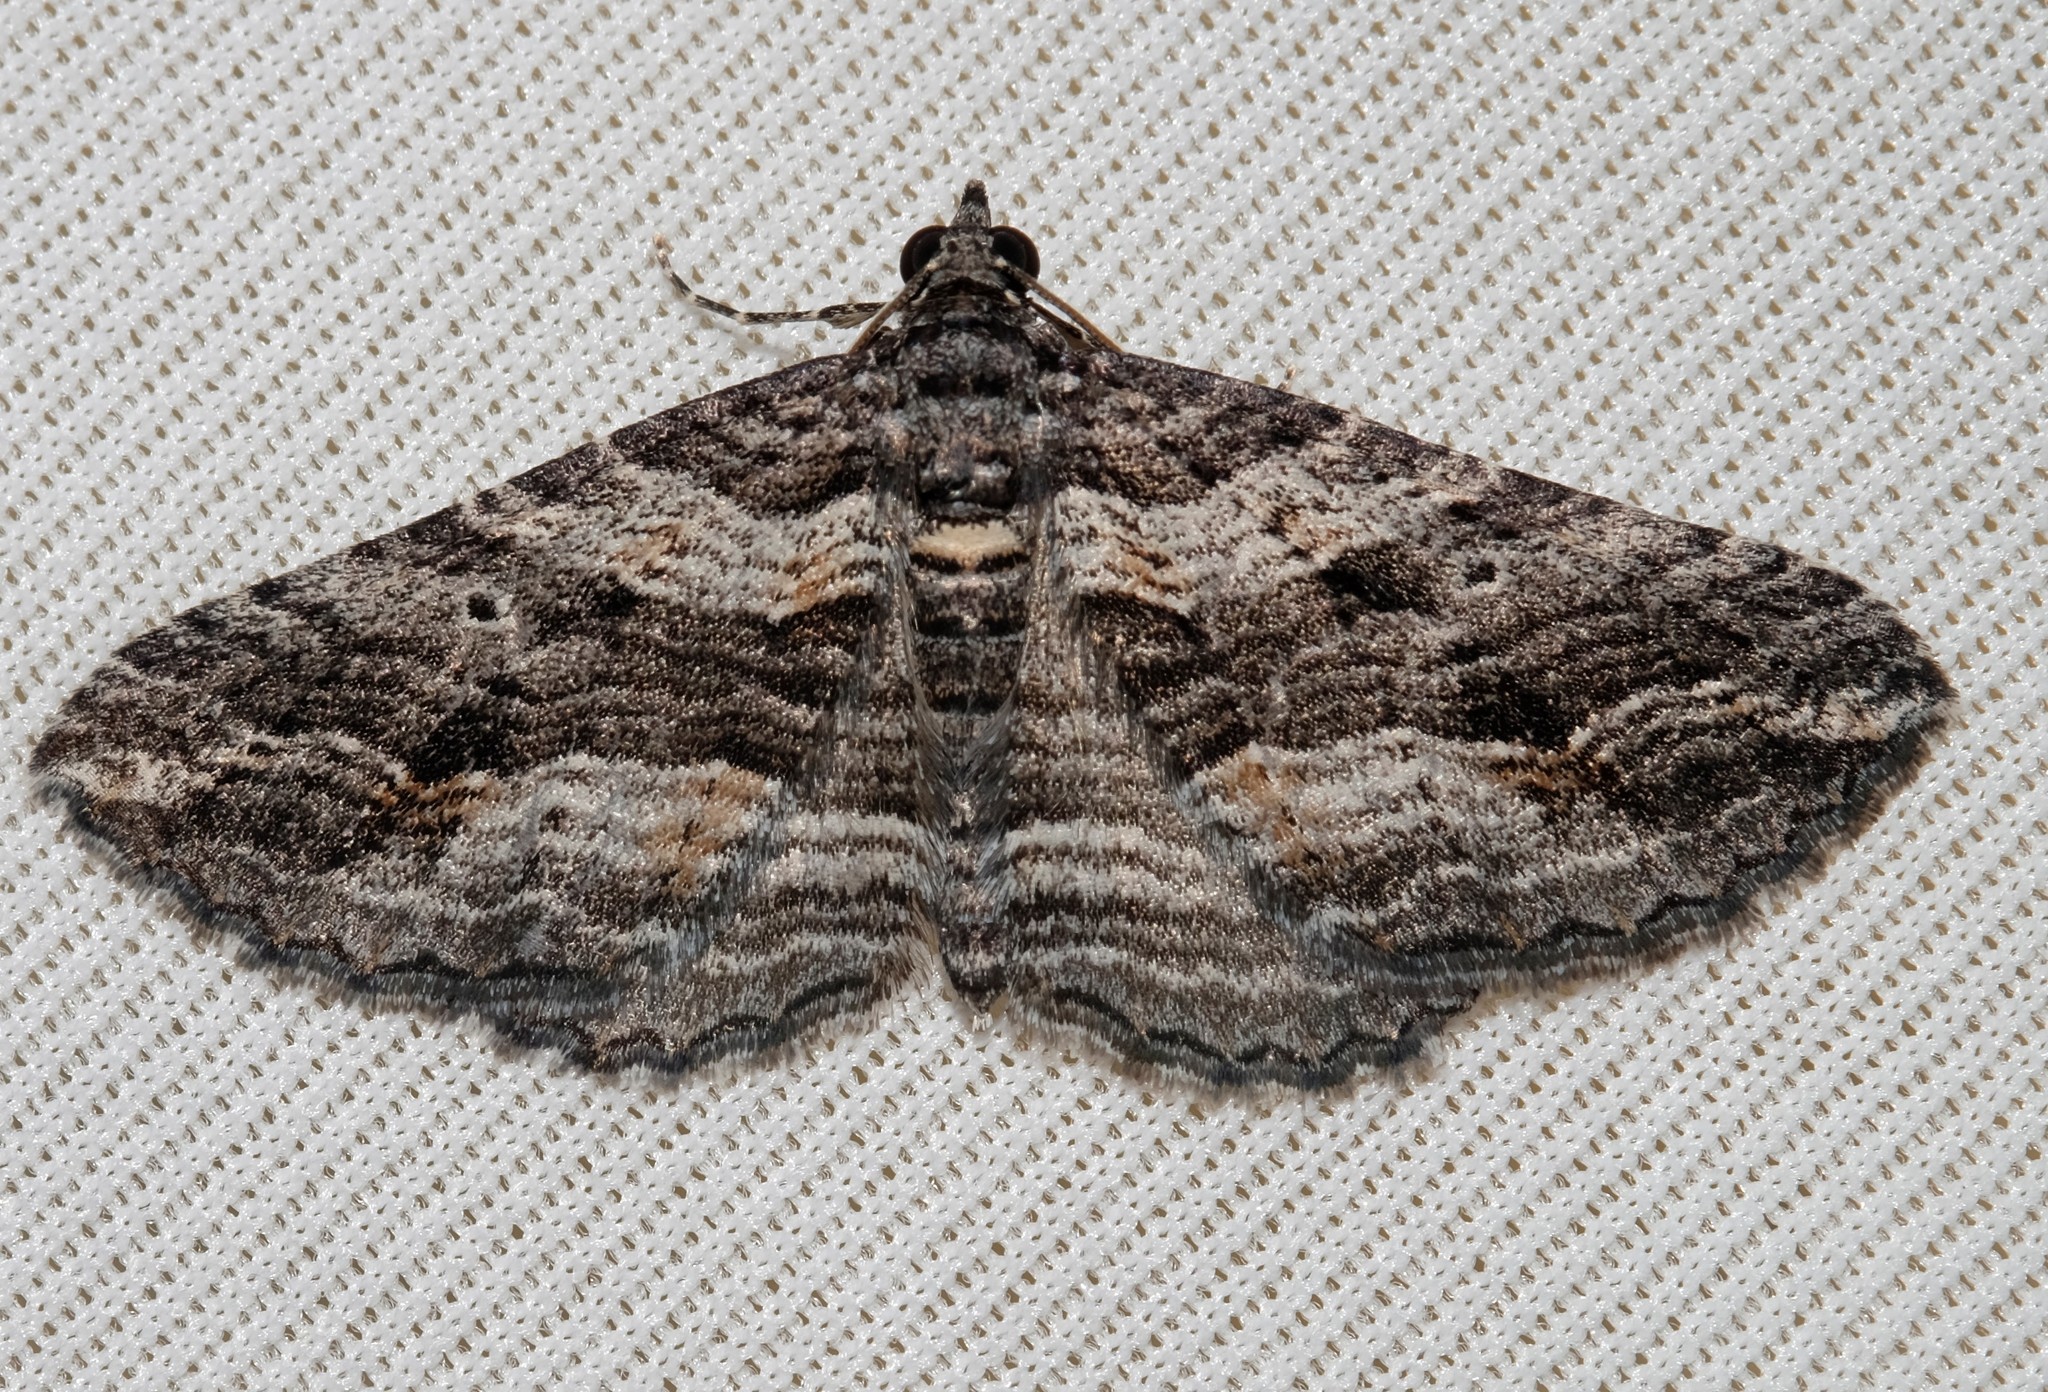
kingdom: Animalia
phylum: Arthropoda
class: Insecta
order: Lepidoptera
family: Geometridae
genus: Chrysolarentia
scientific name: Chrysolarentia severata
